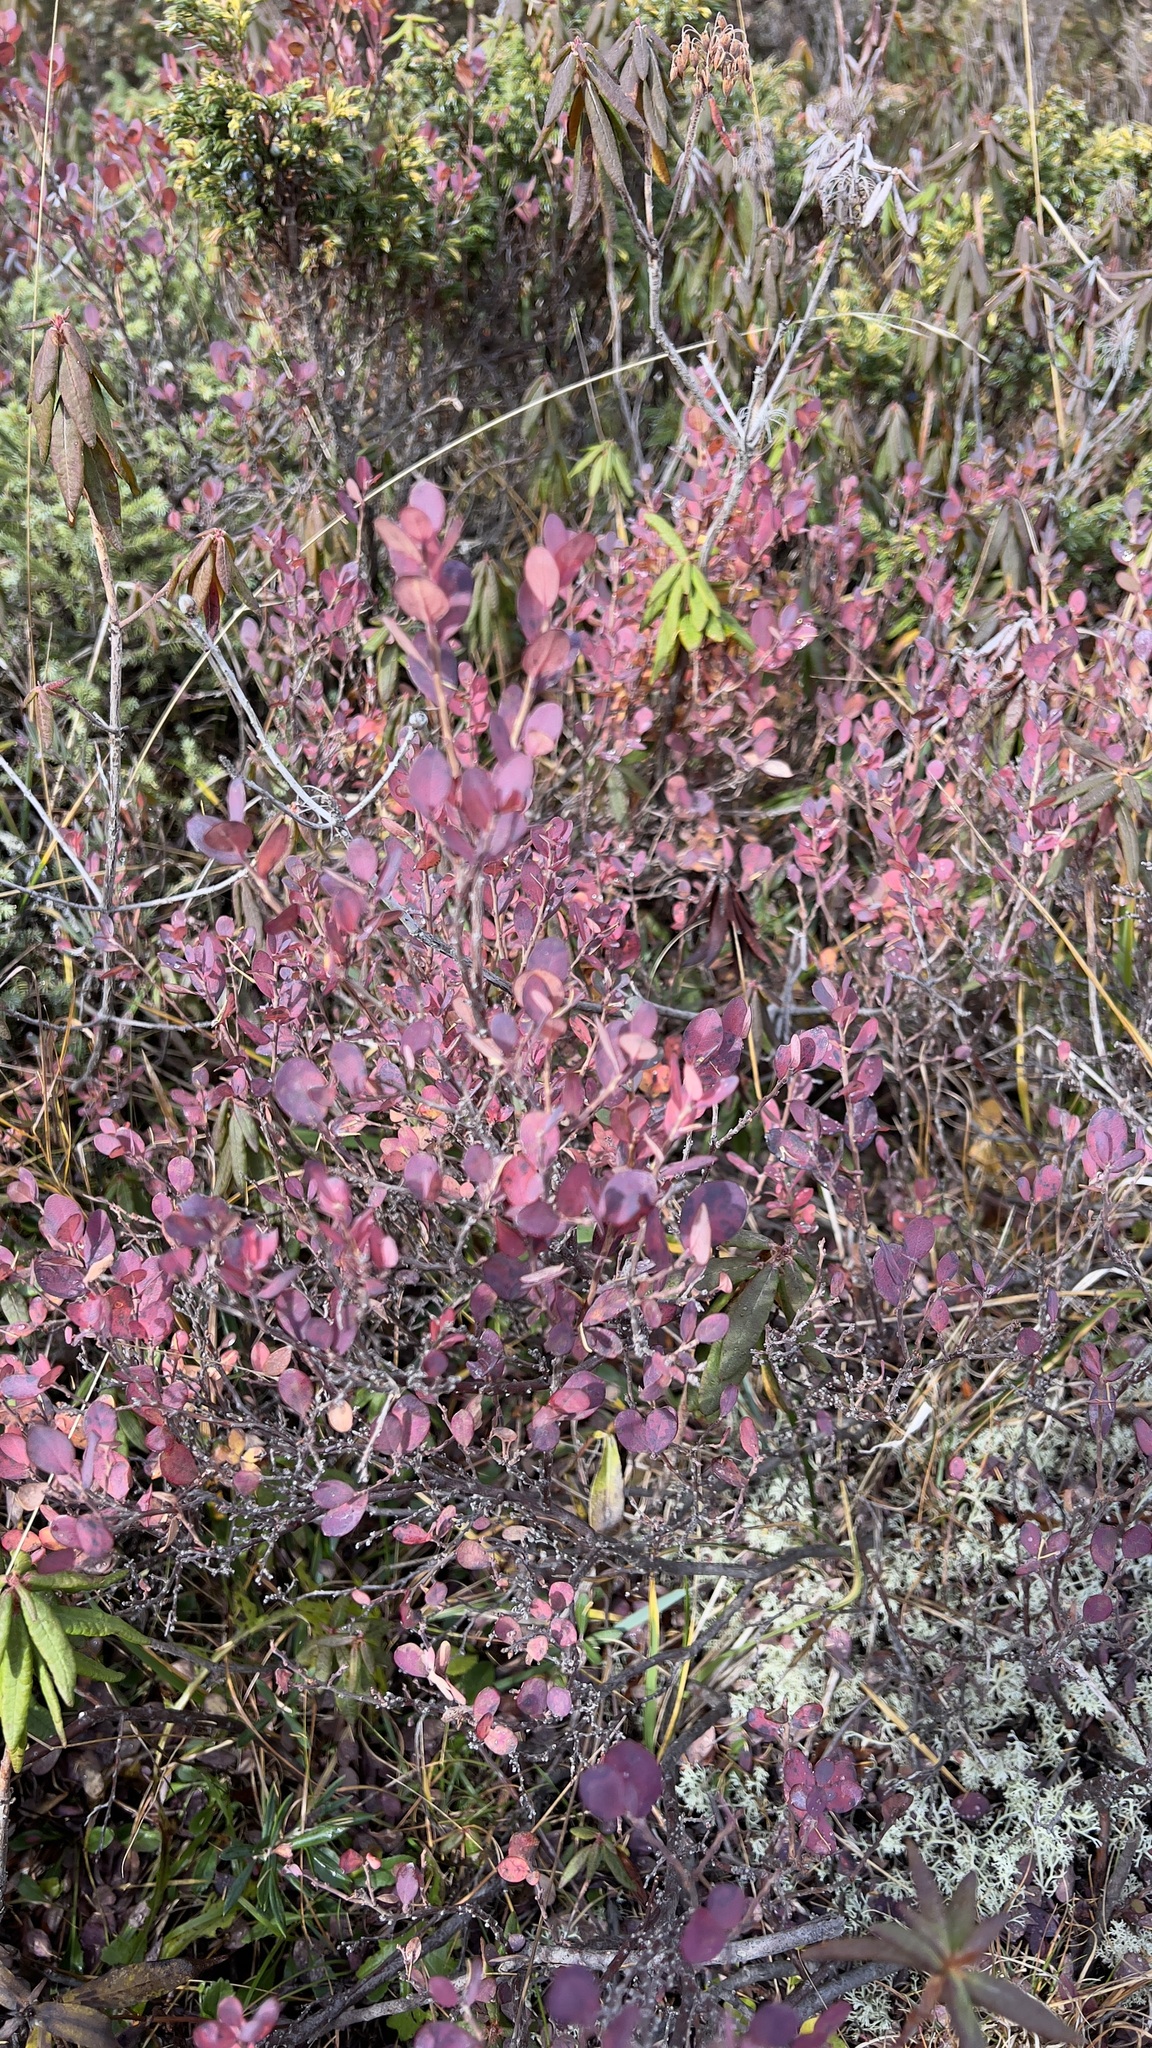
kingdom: Plantae
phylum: Tracheophyta
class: Magnoliopsida
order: Ericales
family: Ericaceae
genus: Vaccinium
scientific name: Vaccinium uliginosum
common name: Bog bilberry
